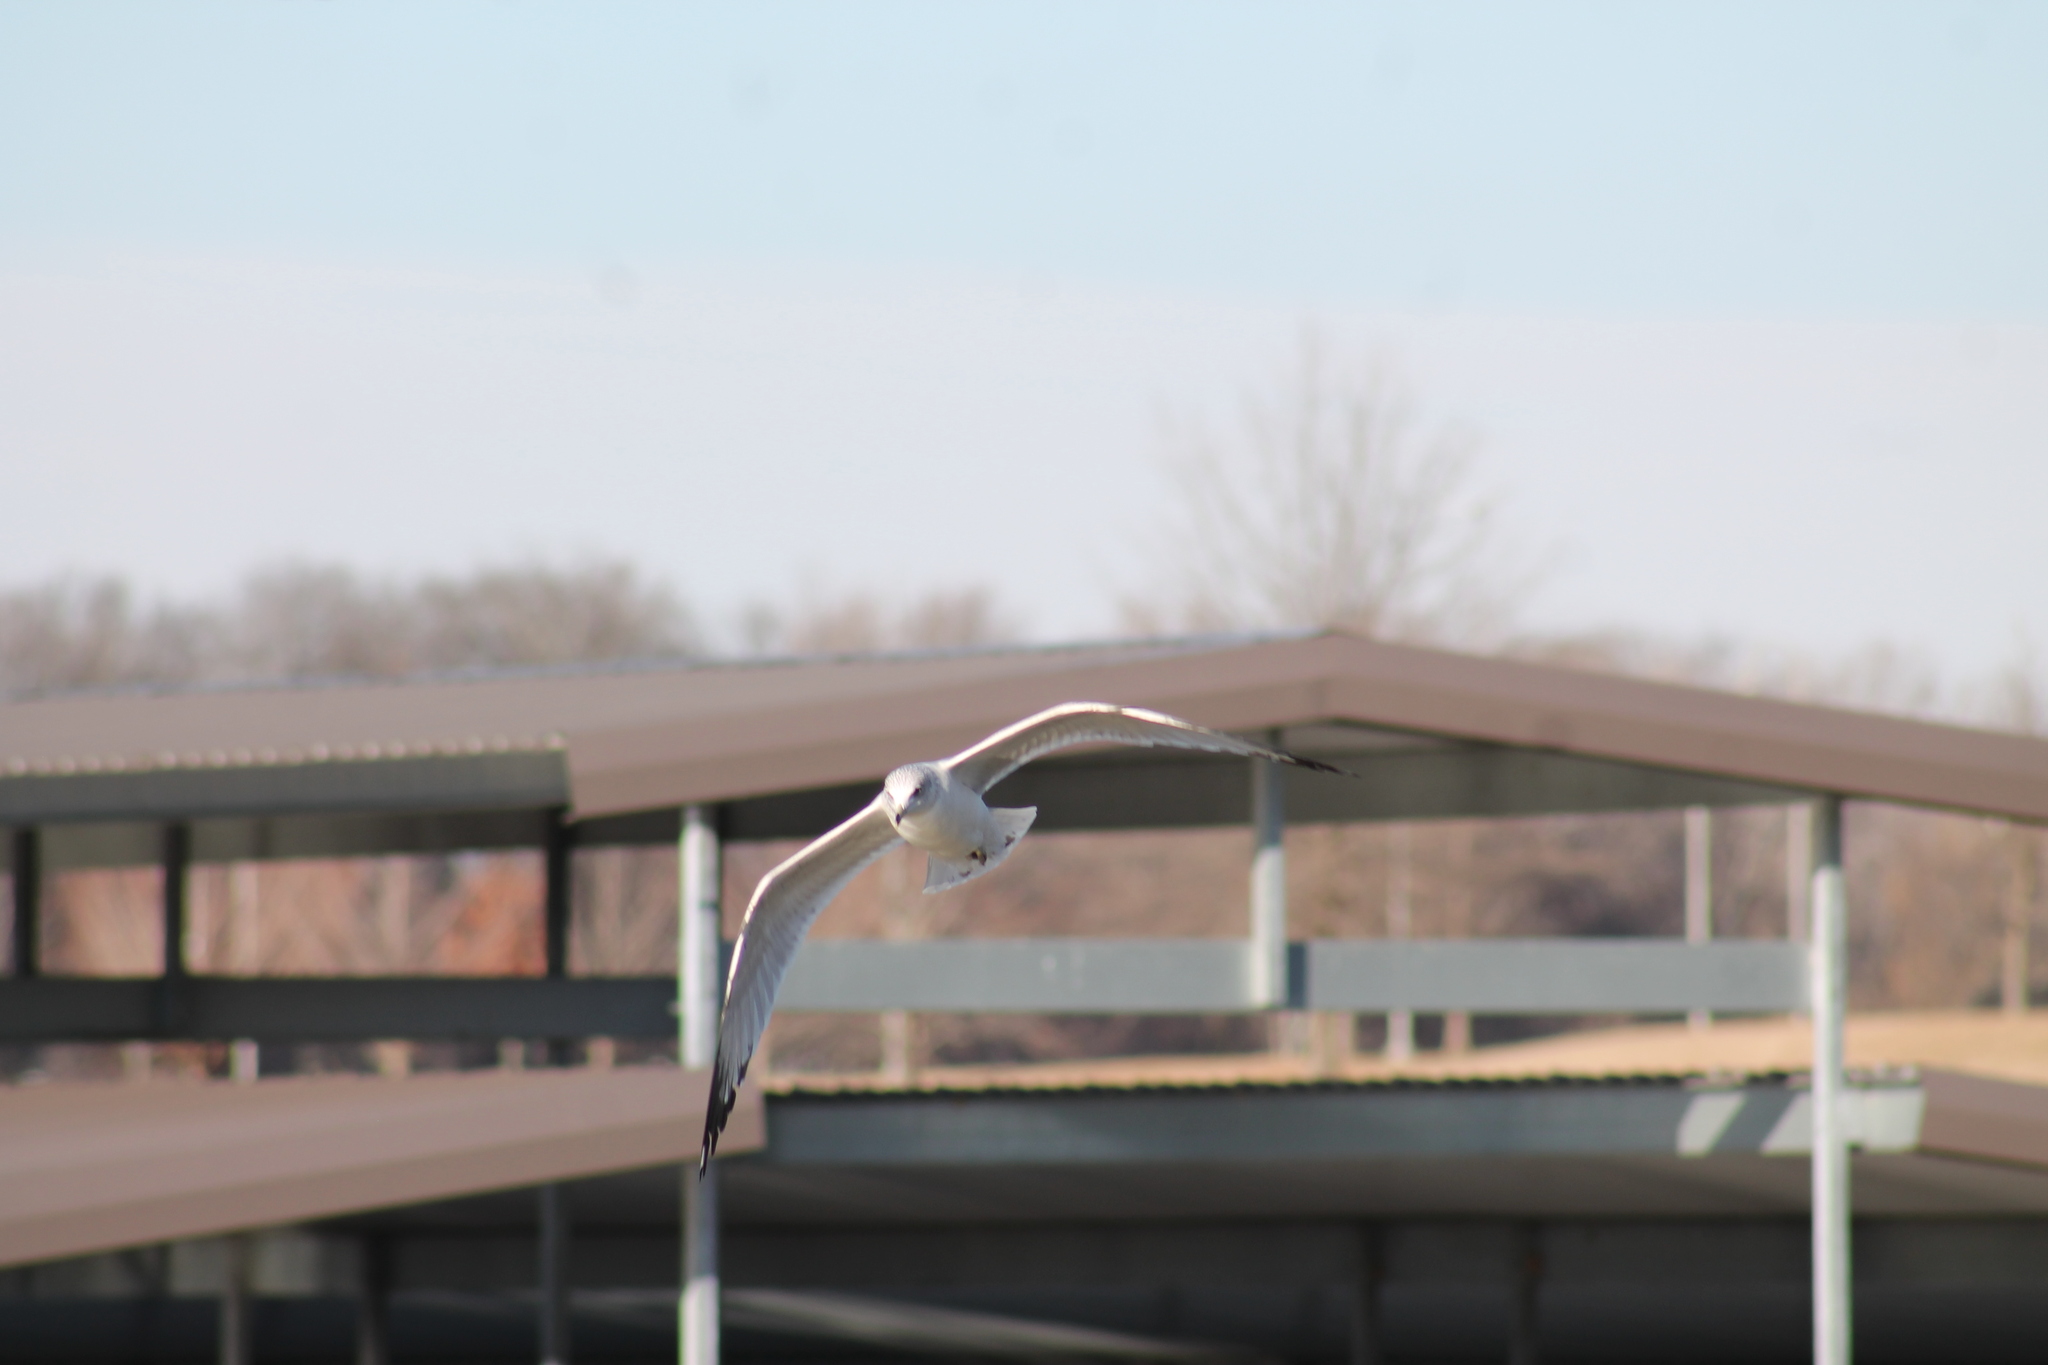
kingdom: Animalia
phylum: Chordata
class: Aves
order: Charadriiformes
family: Laridae
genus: Larus
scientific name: Larus delawarensis
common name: Ring-billed gull
